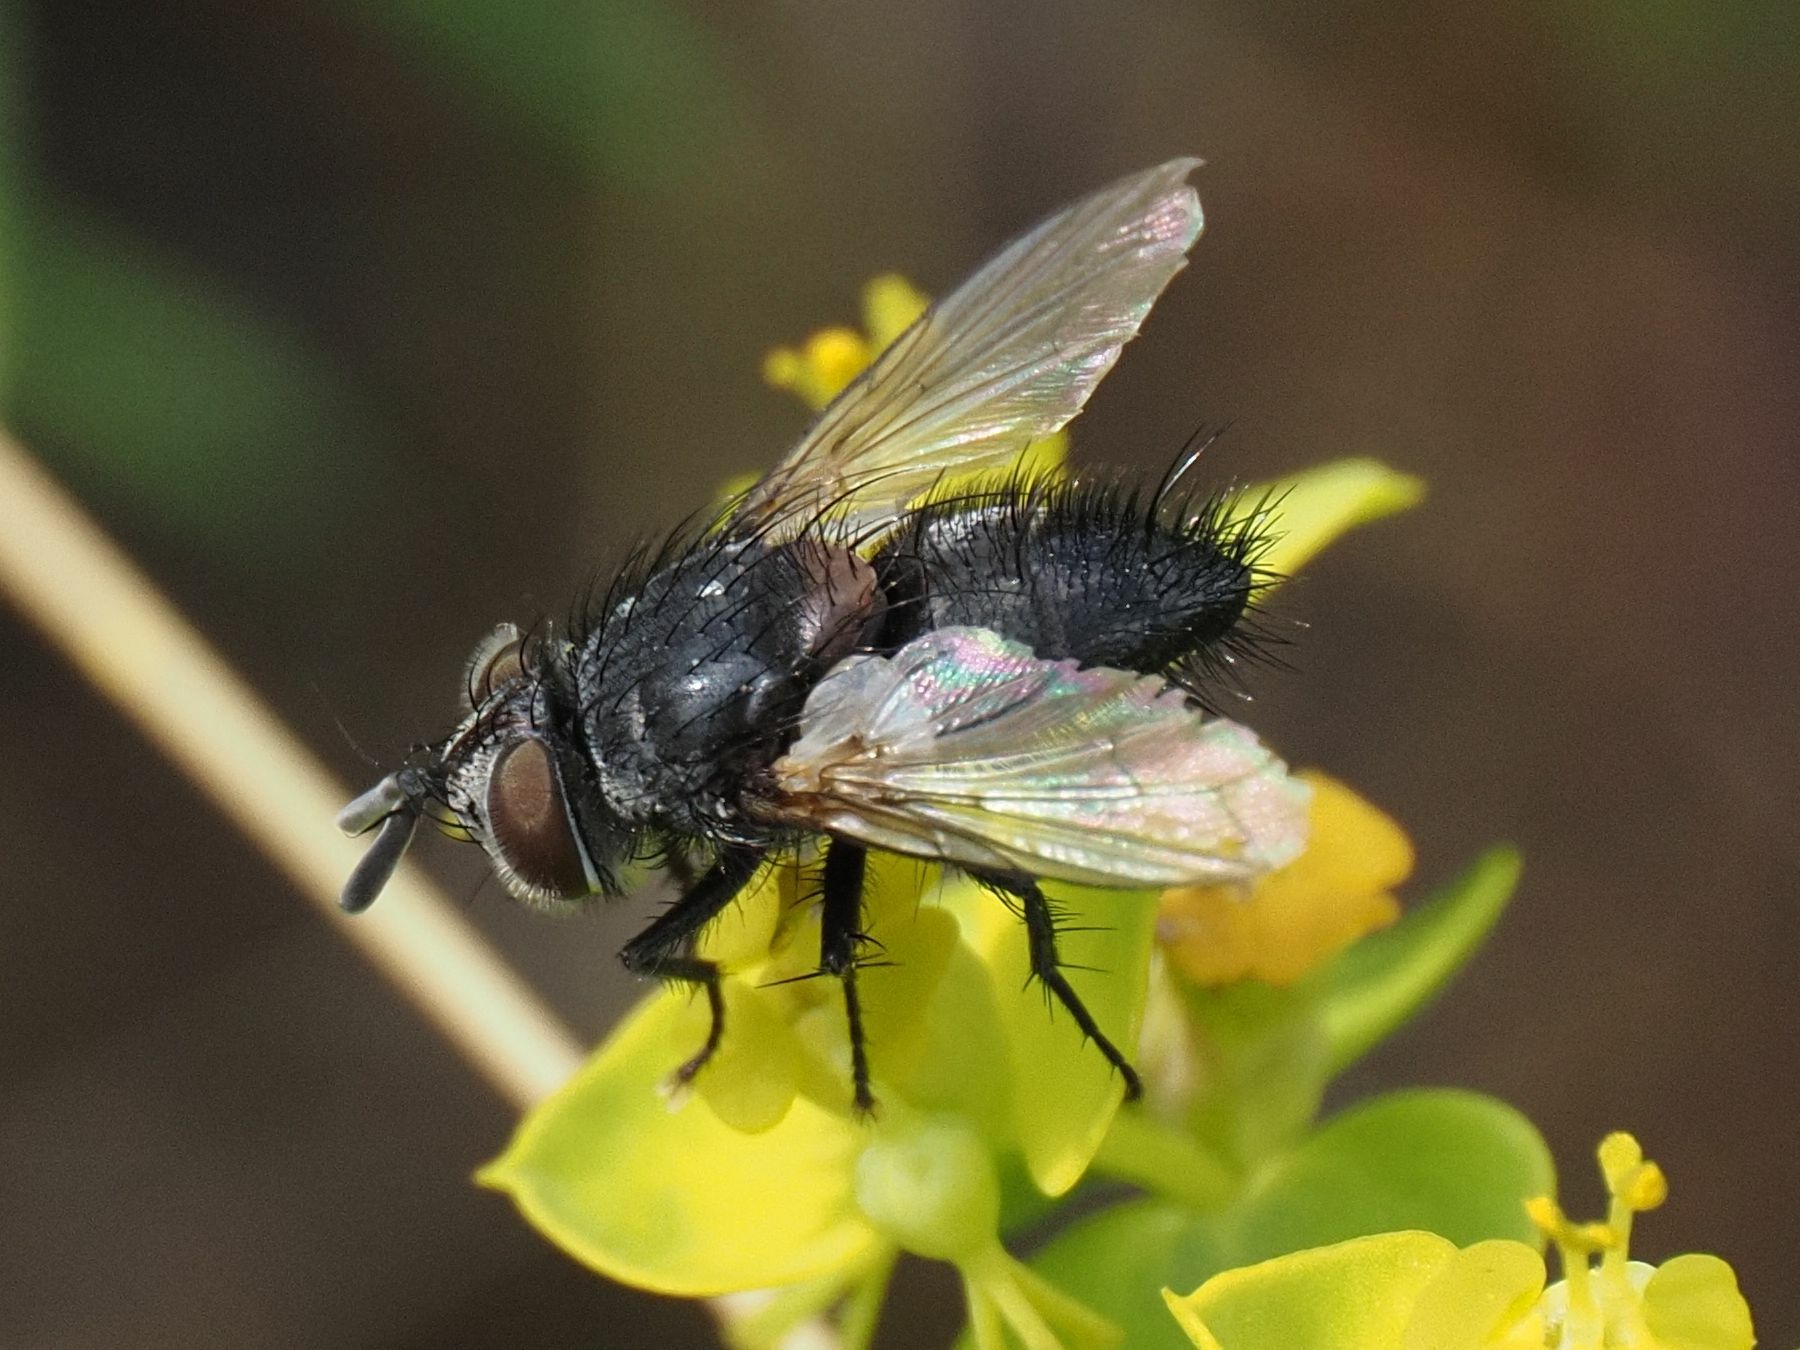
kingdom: Animalia
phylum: Arthropoda
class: Insecta
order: Diptera
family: Tachinidae
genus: Aplomya
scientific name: Aplomya confinis
